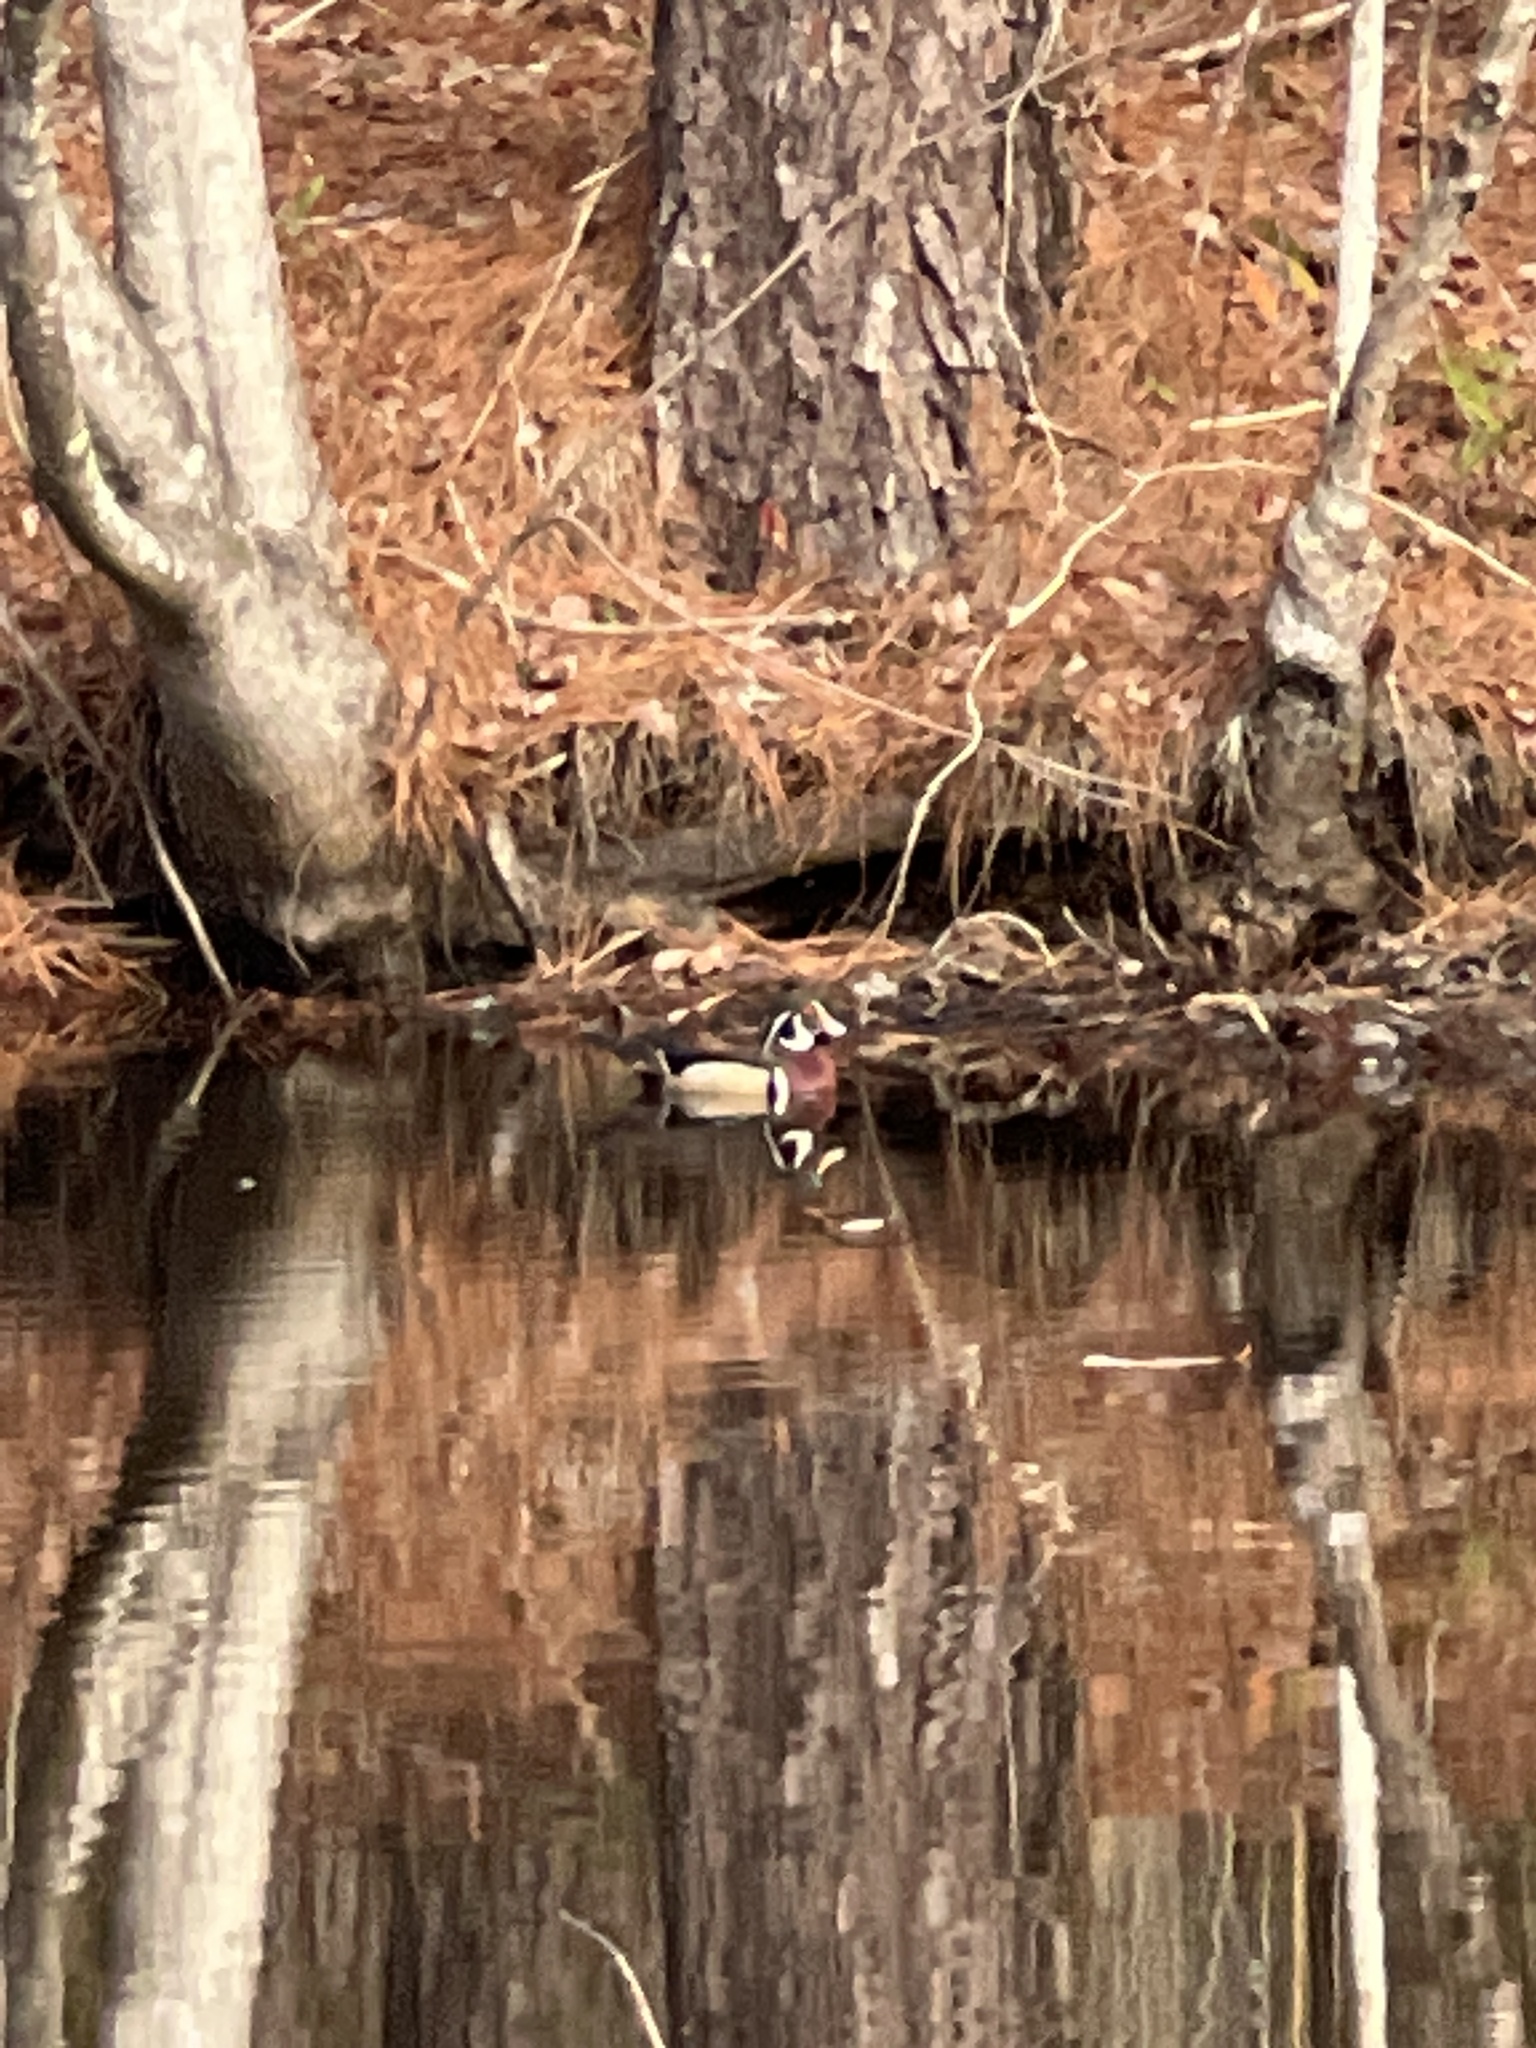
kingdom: Animalia
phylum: Chordata
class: Aves
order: Anseriformes
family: Anatidae
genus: Aix
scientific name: Aix sponsa
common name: Wood duck
